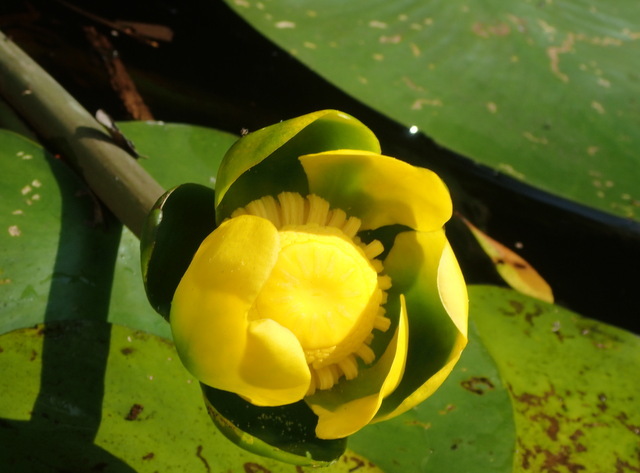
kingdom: Plantae
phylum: Tracheophyta
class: Magnoliopsida
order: Nymphaeales
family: Nymphaeaceae
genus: Nuphar
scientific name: Nuphar advena
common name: Spatter-dock
